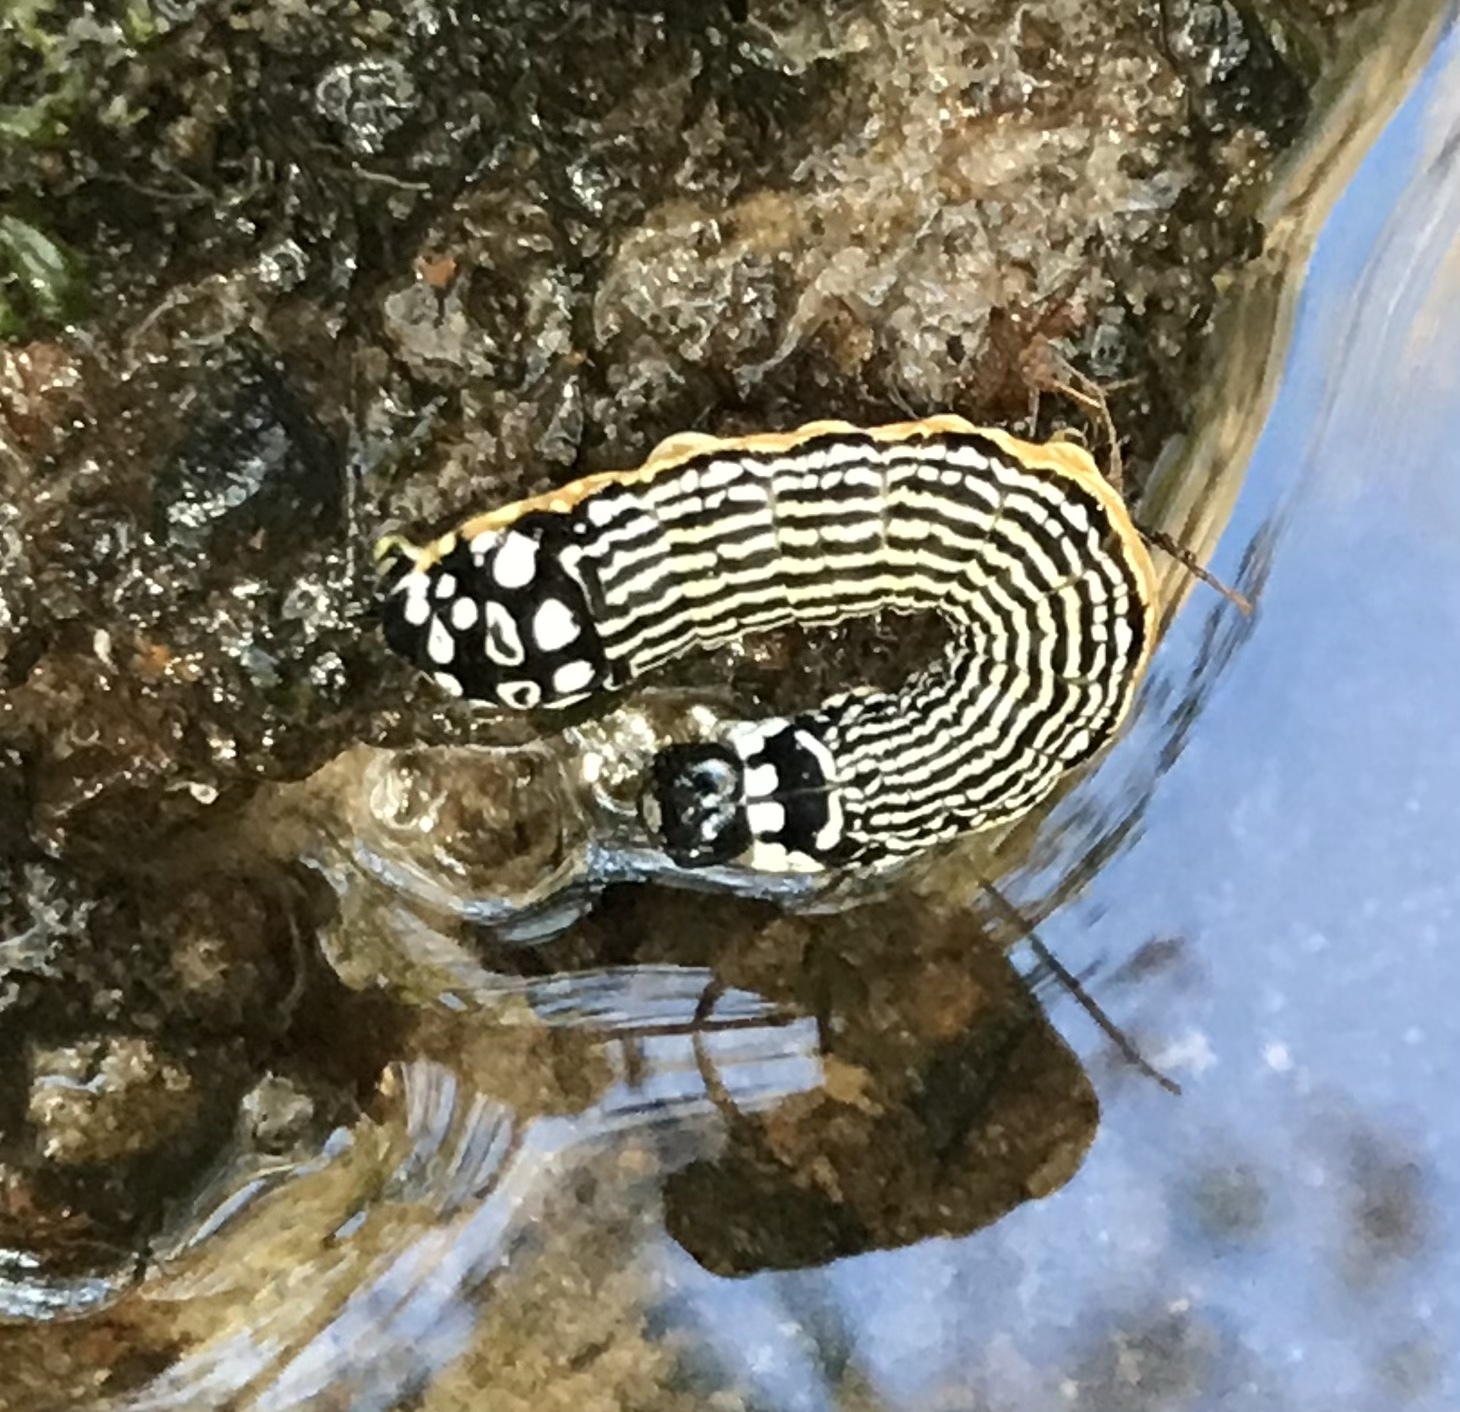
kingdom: Animalia
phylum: Arthropoda
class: Insecta
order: Lepidoptera
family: Noctuidae
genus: Phosphila
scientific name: Phosphila turbulenta
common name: Turbulent phosphila moth
